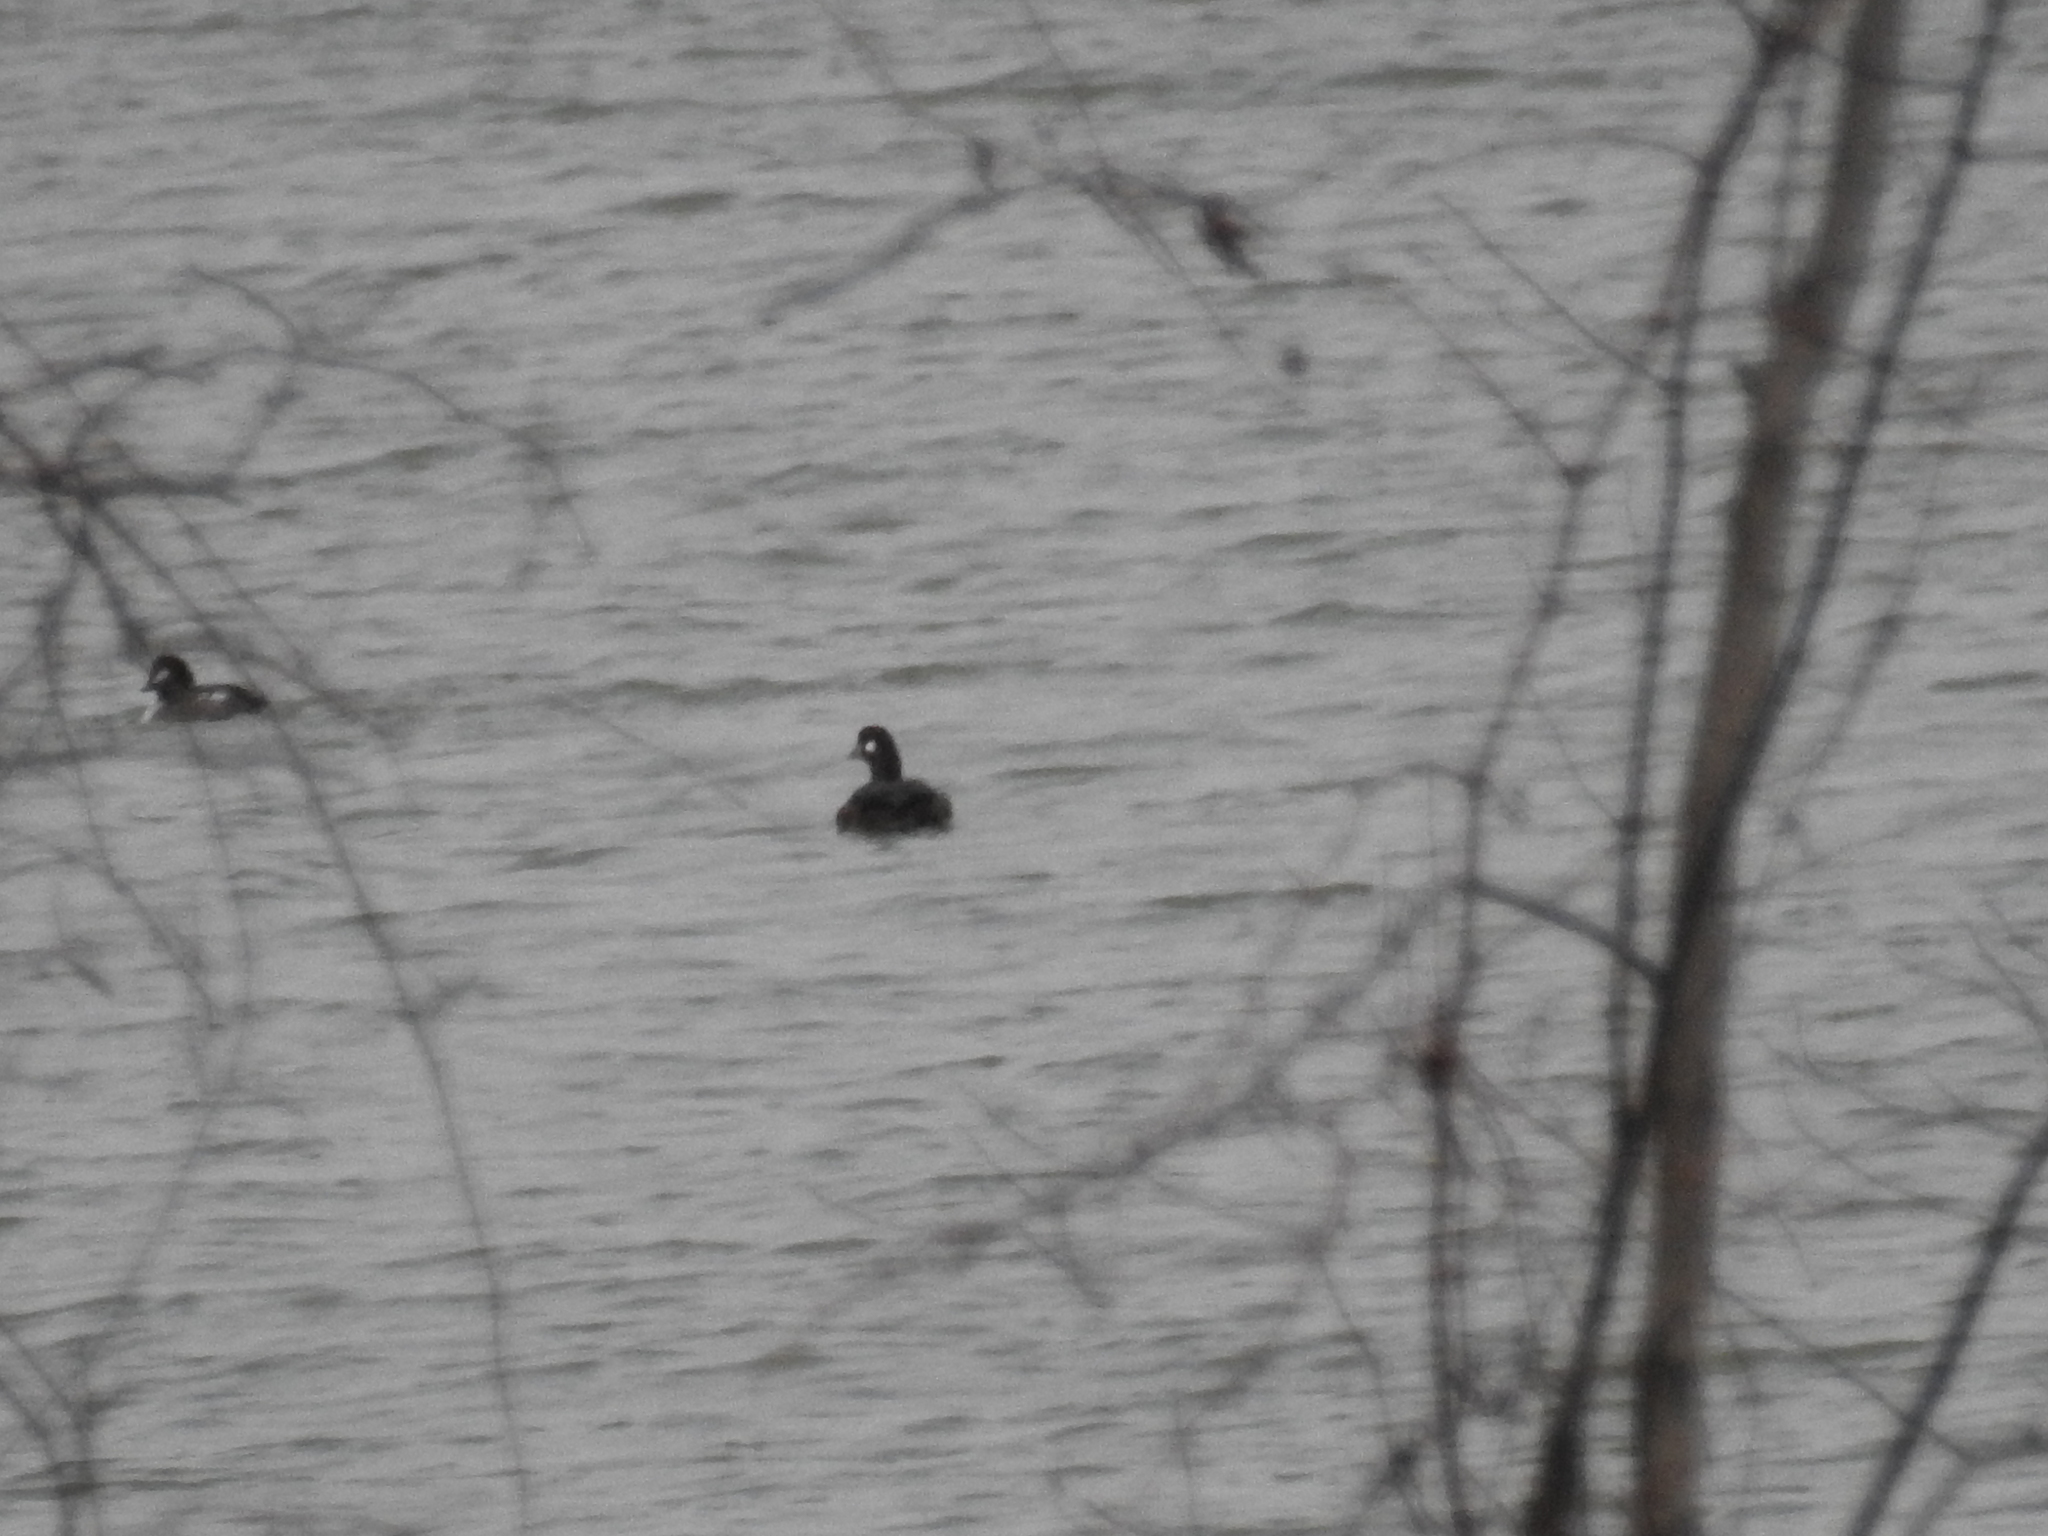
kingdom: Animalia
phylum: Chordata
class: Aves
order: Anseriformes
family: Anatidae
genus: Histrionicus
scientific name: Histrionicus histrionicus
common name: Harlequin duck
